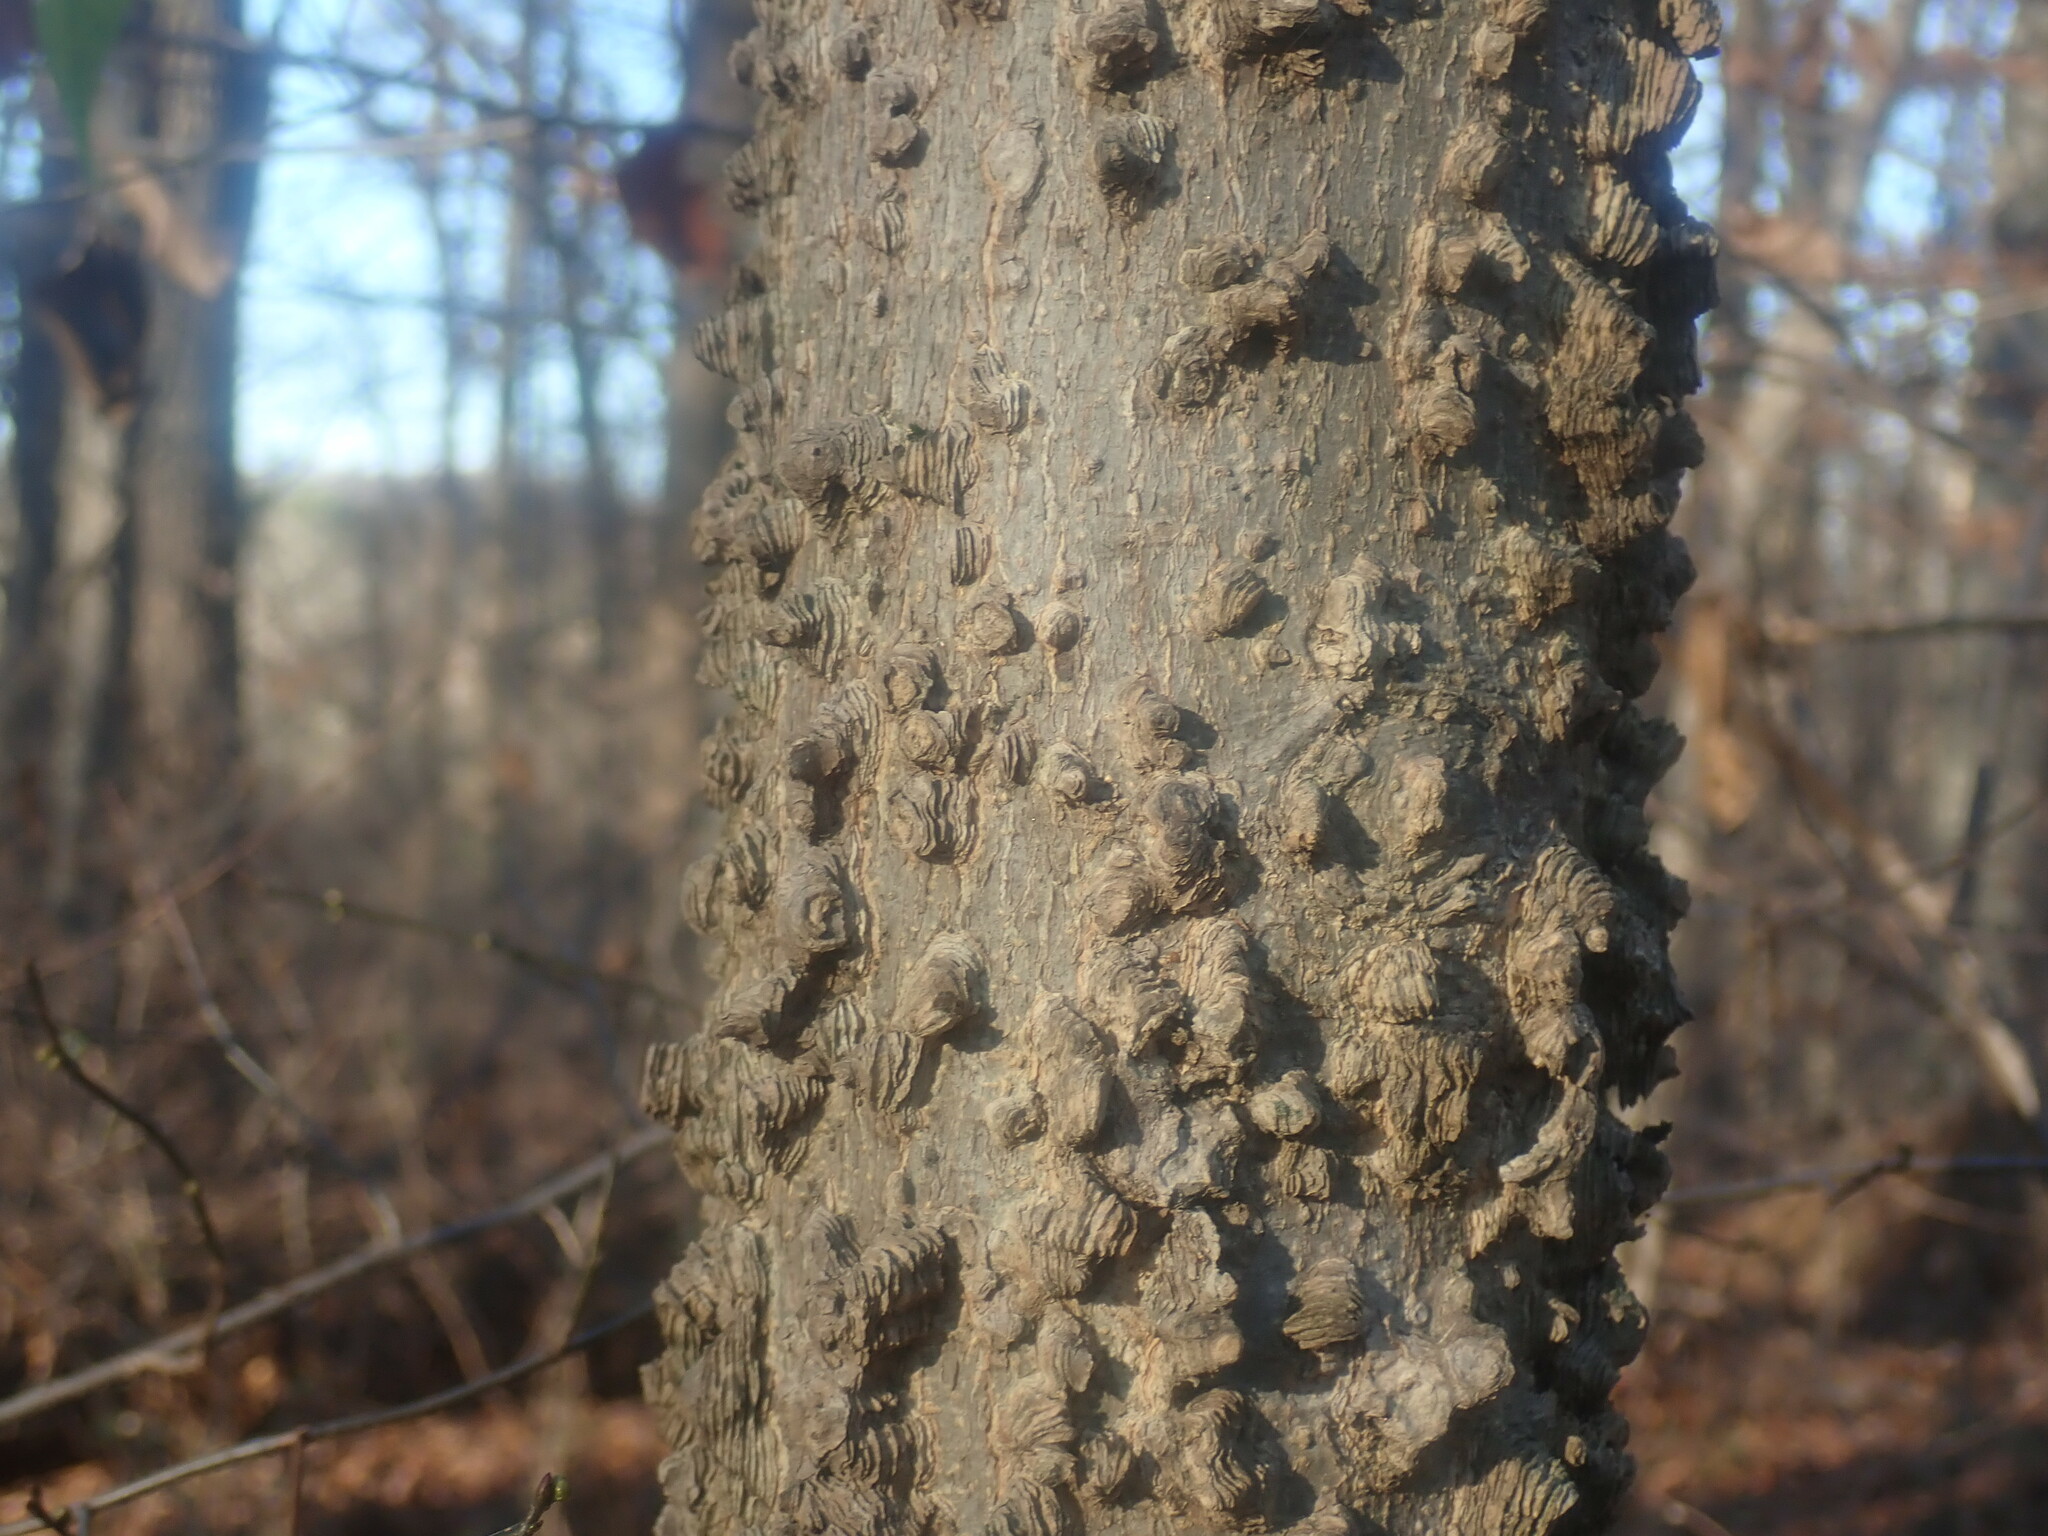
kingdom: Plantae
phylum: Tracheophyta
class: Magnoliopsida
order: Rosales
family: Cannabaceae
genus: Celtis
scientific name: Celtis occidentalis
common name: Common hackberry
